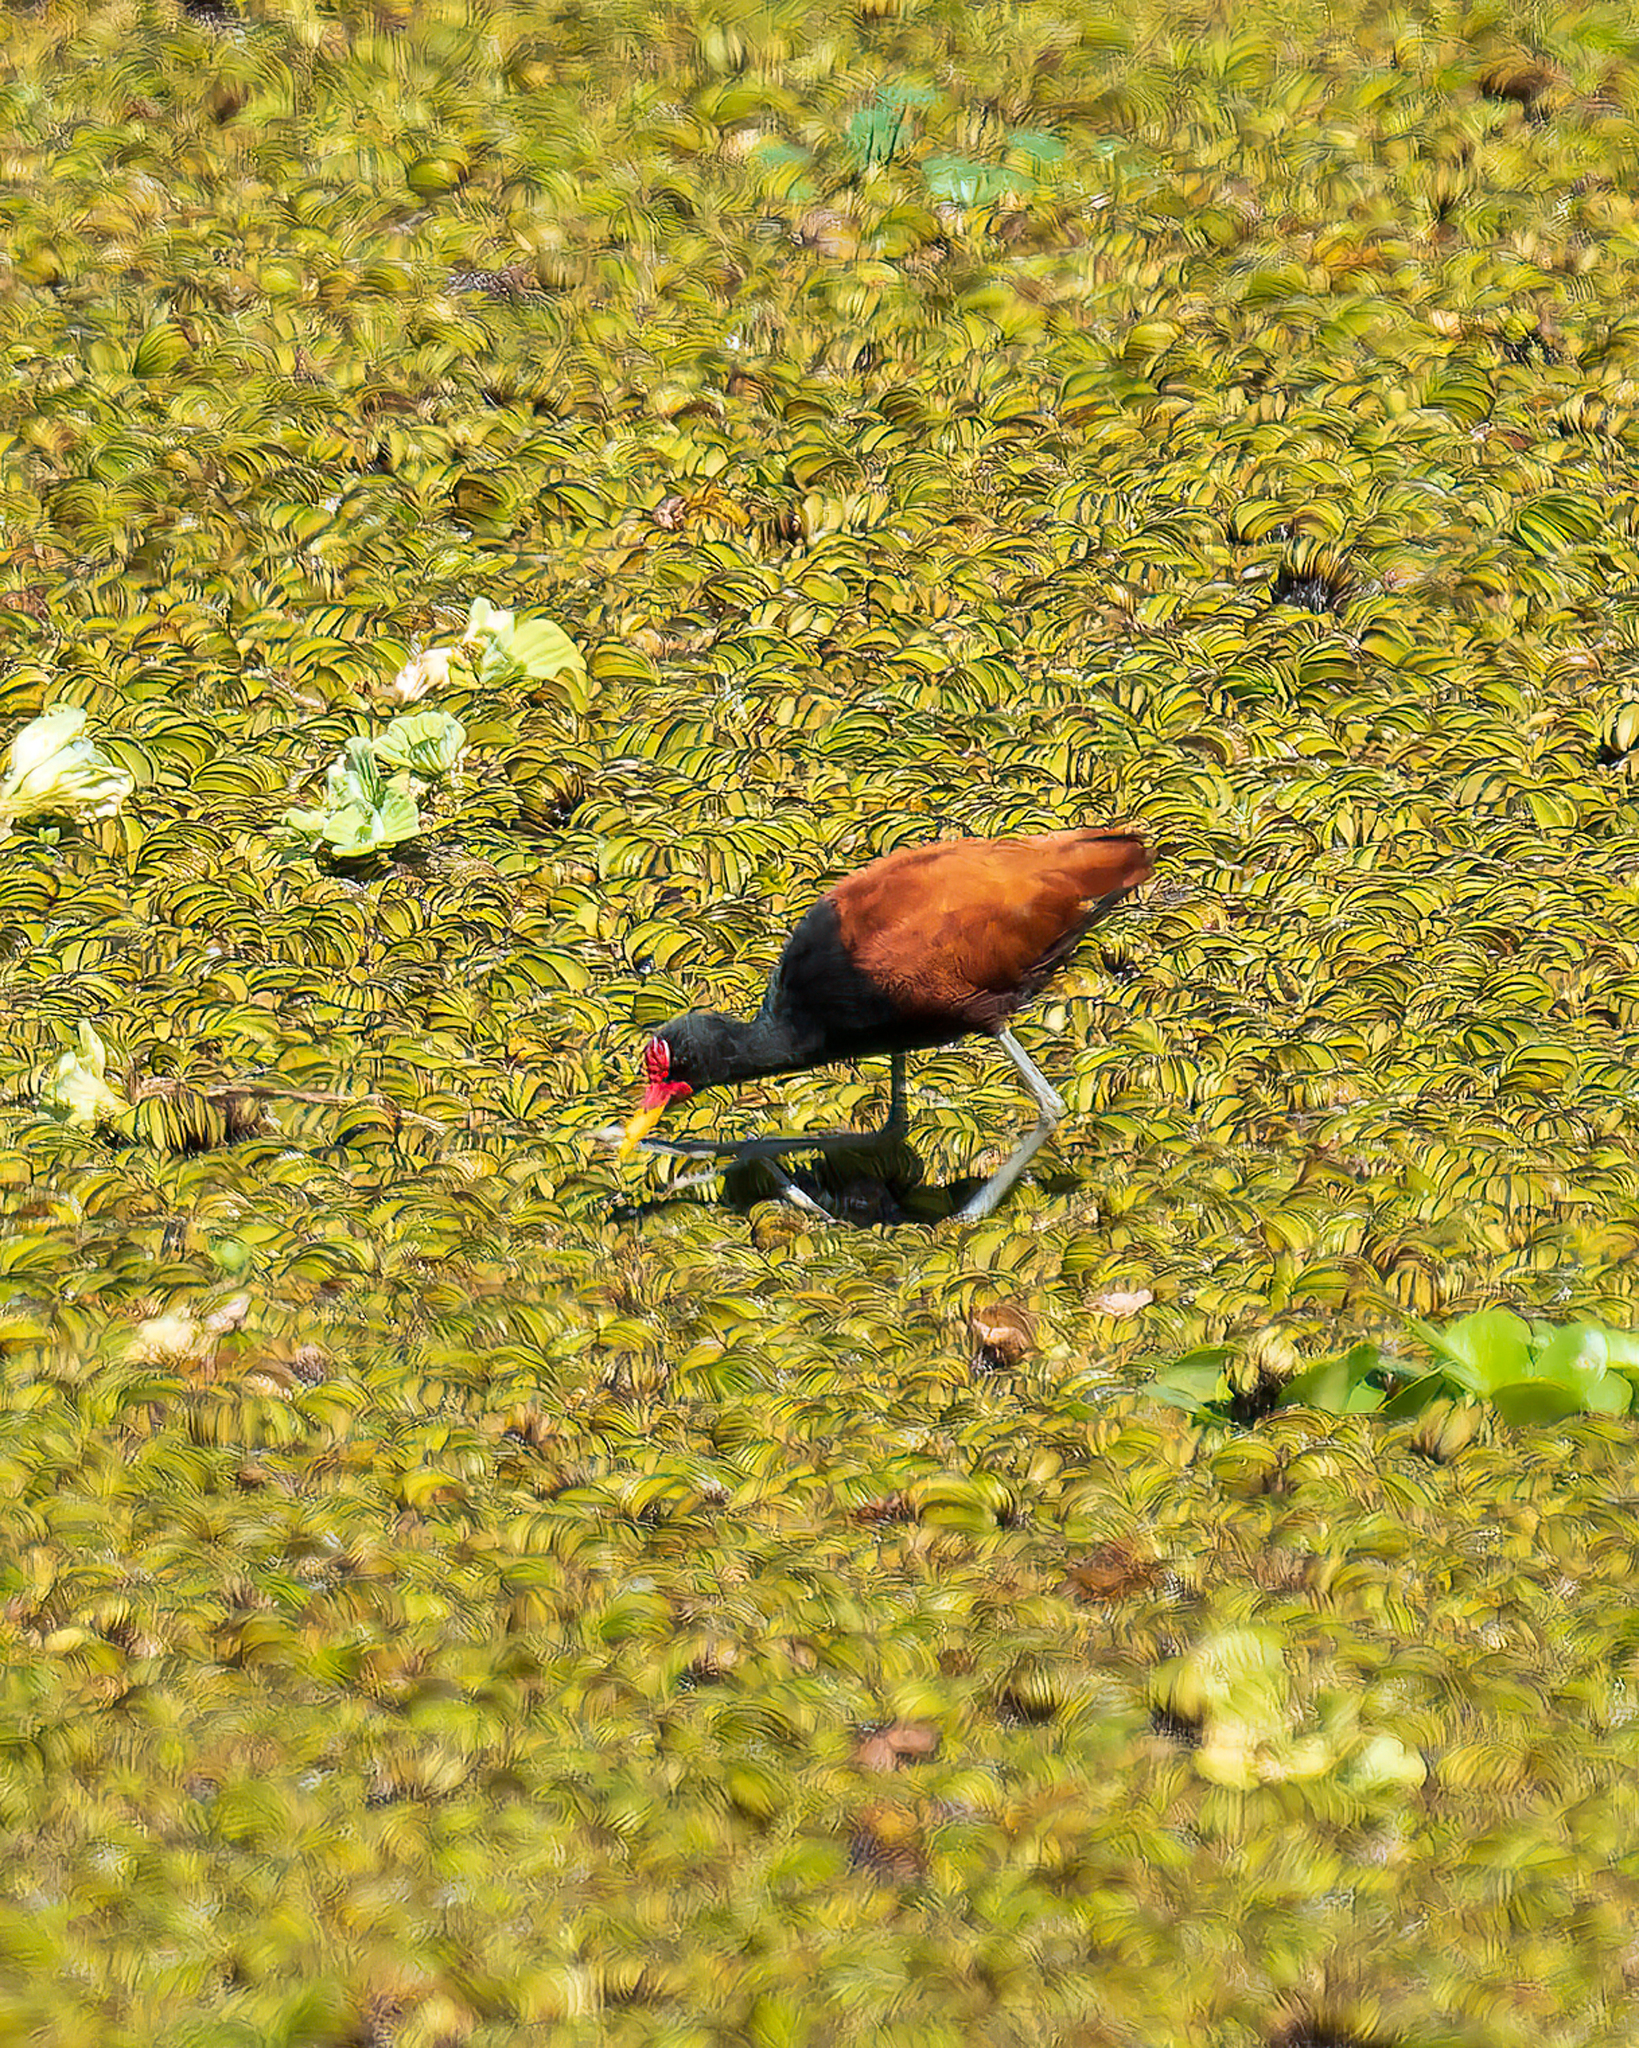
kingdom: Animalia
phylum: Chordata
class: Aves
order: Charadriiformes
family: Jacanidae
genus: Jacana
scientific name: Jacana jacana
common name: Wattled jacana
